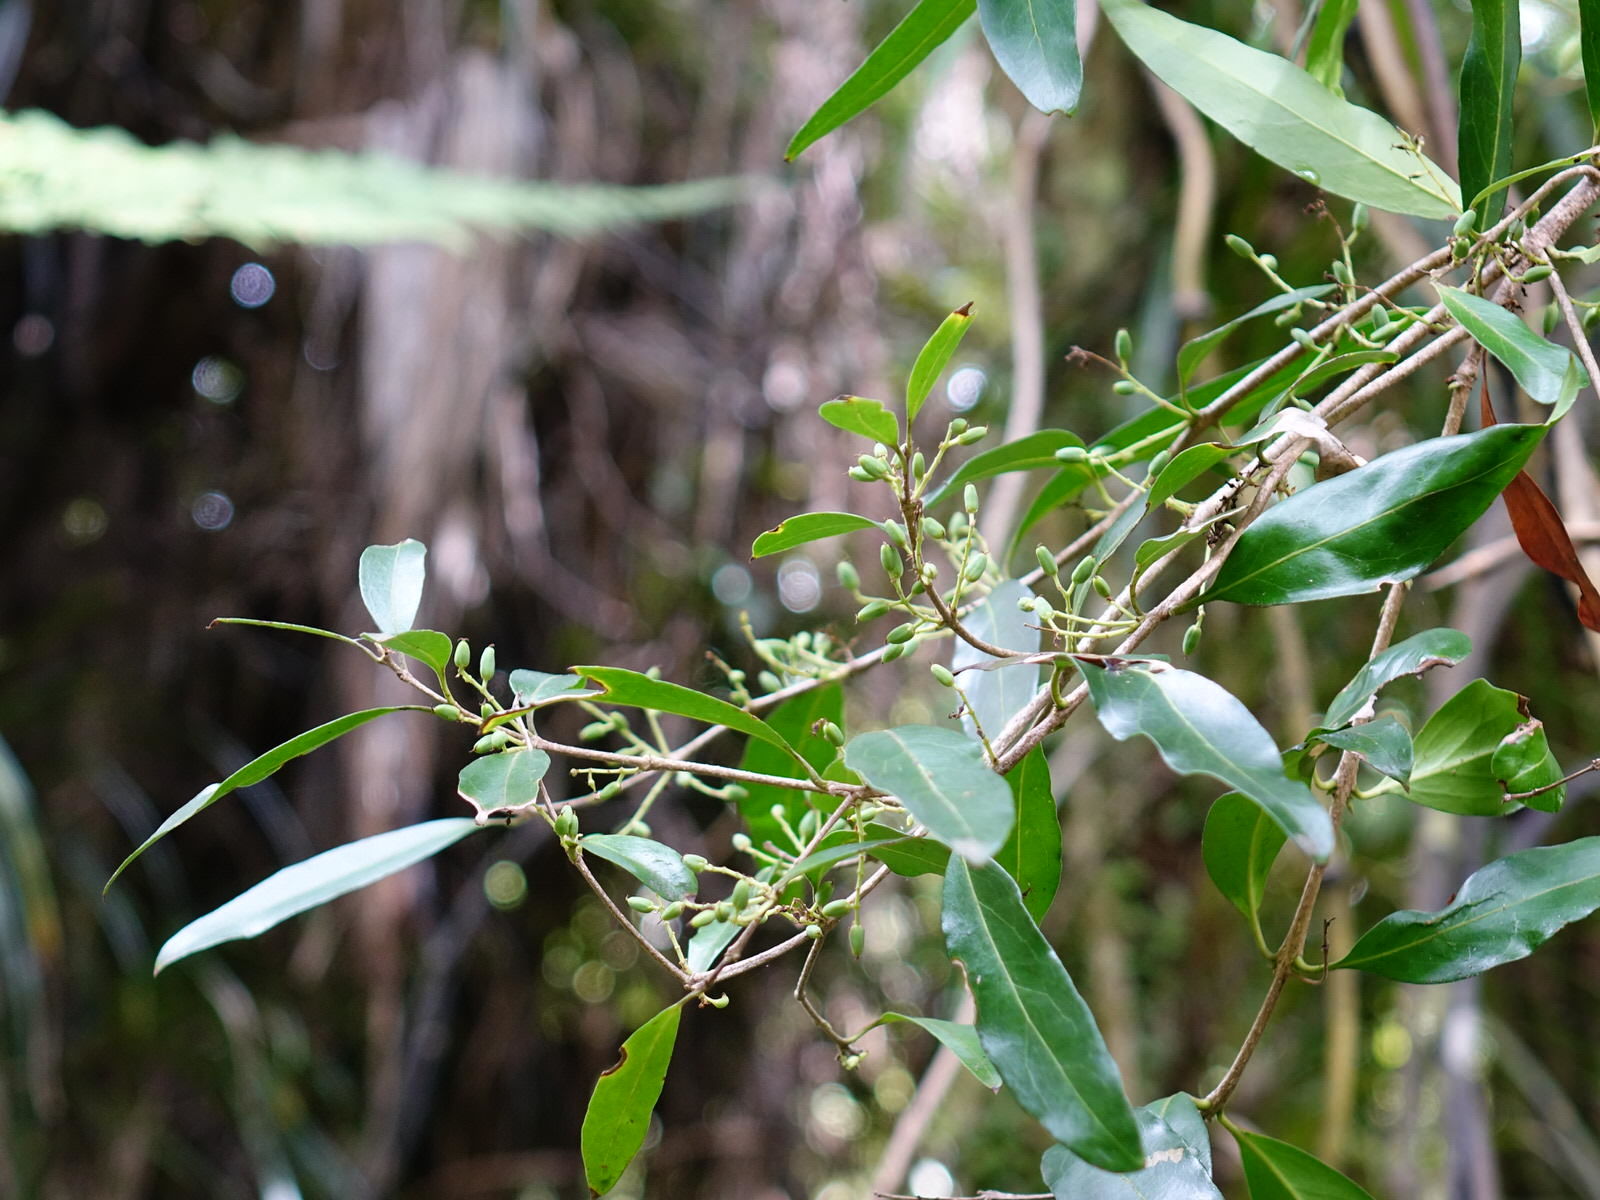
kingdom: Plantae
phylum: Tracheophyta
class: Magnoliopsida
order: Lamiales
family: Oleaceae
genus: Nestegis
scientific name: Nestegis lanceolata
